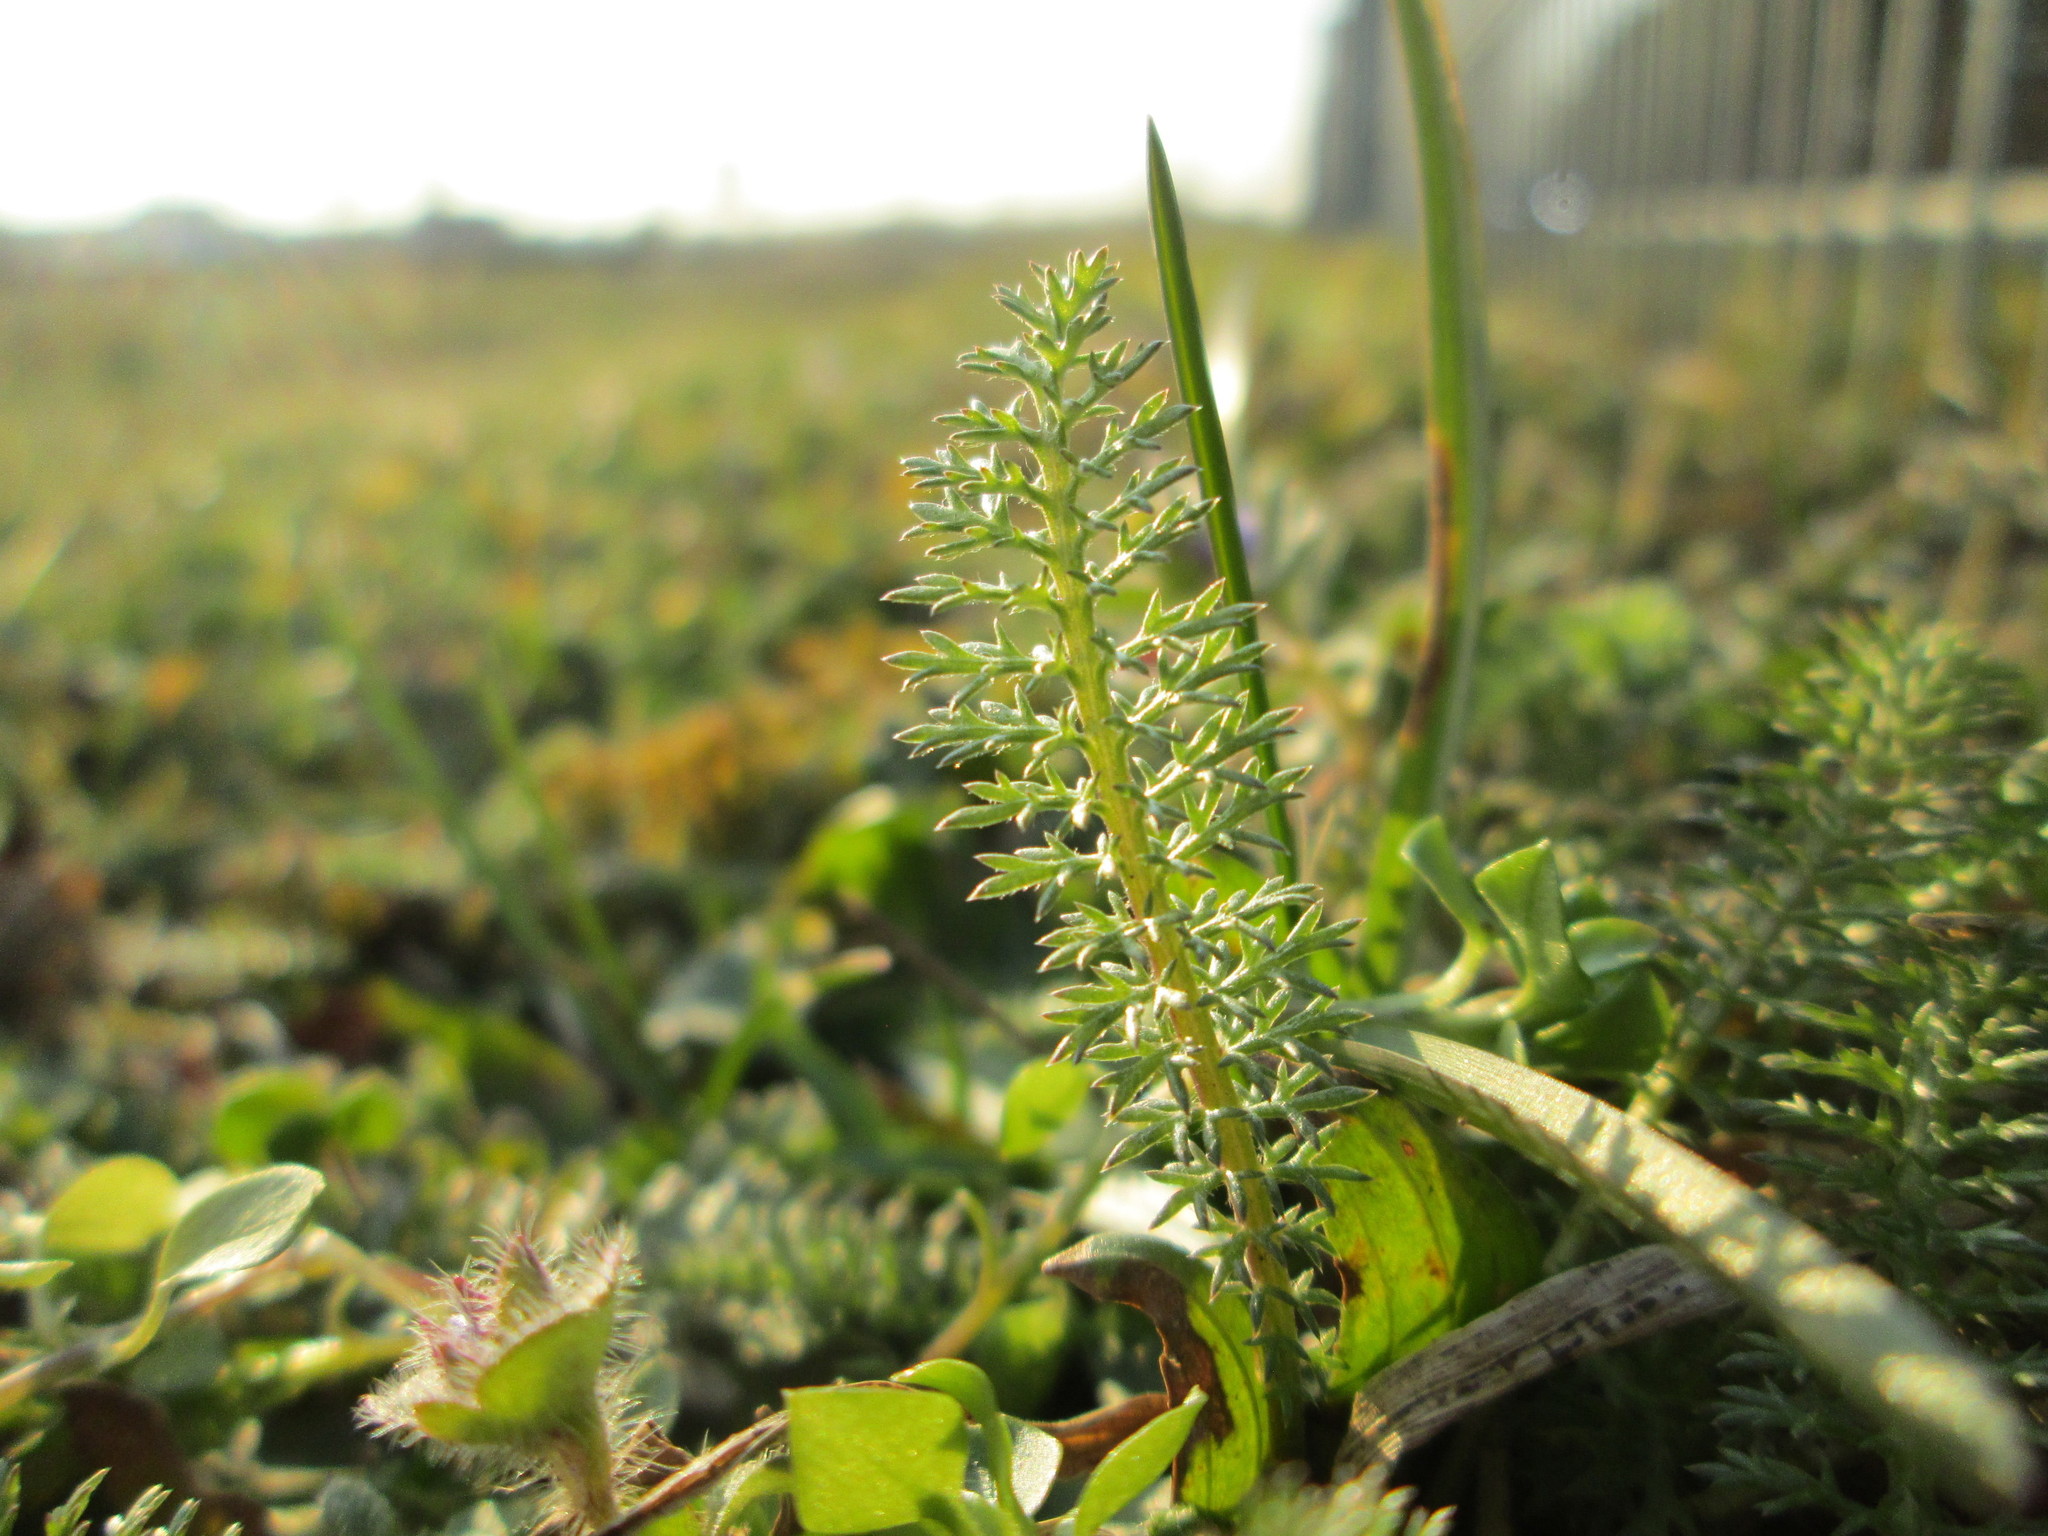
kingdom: Plantae
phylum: Tracheophyta
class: Magnoliopsida
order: Asterales
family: Asteraceae
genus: Achillea
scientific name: Achillea millefolium
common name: Yarrow
